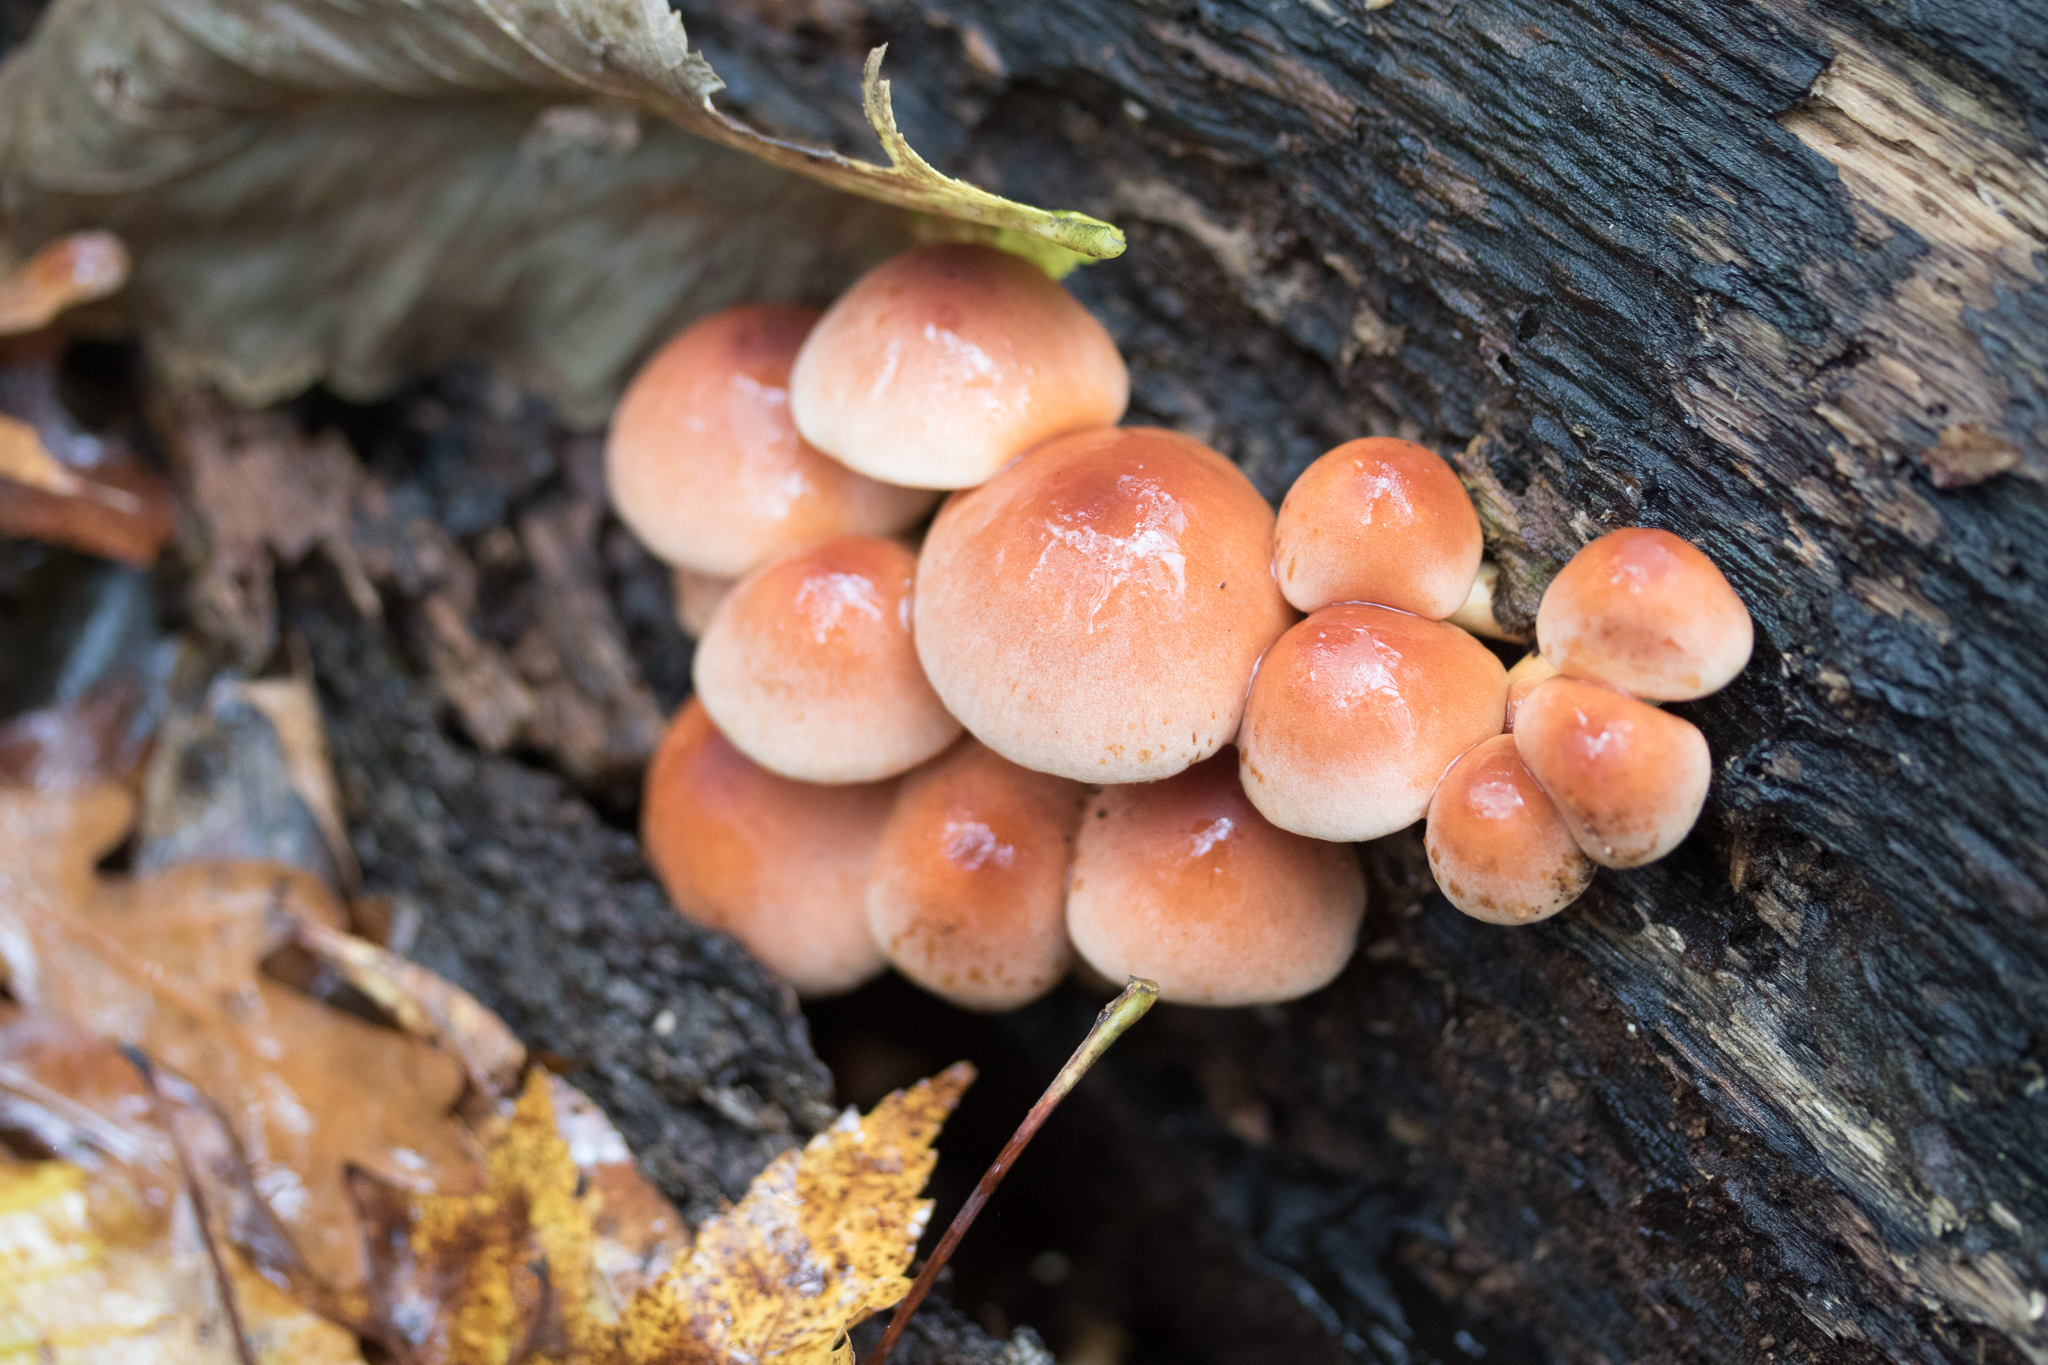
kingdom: Fungi
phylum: Basidiomycota
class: Agaricomycetes
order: Agaricales
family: Strophariaceae
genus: Hypholoma
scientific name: Hypholoma lateritium
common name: Brick caps
